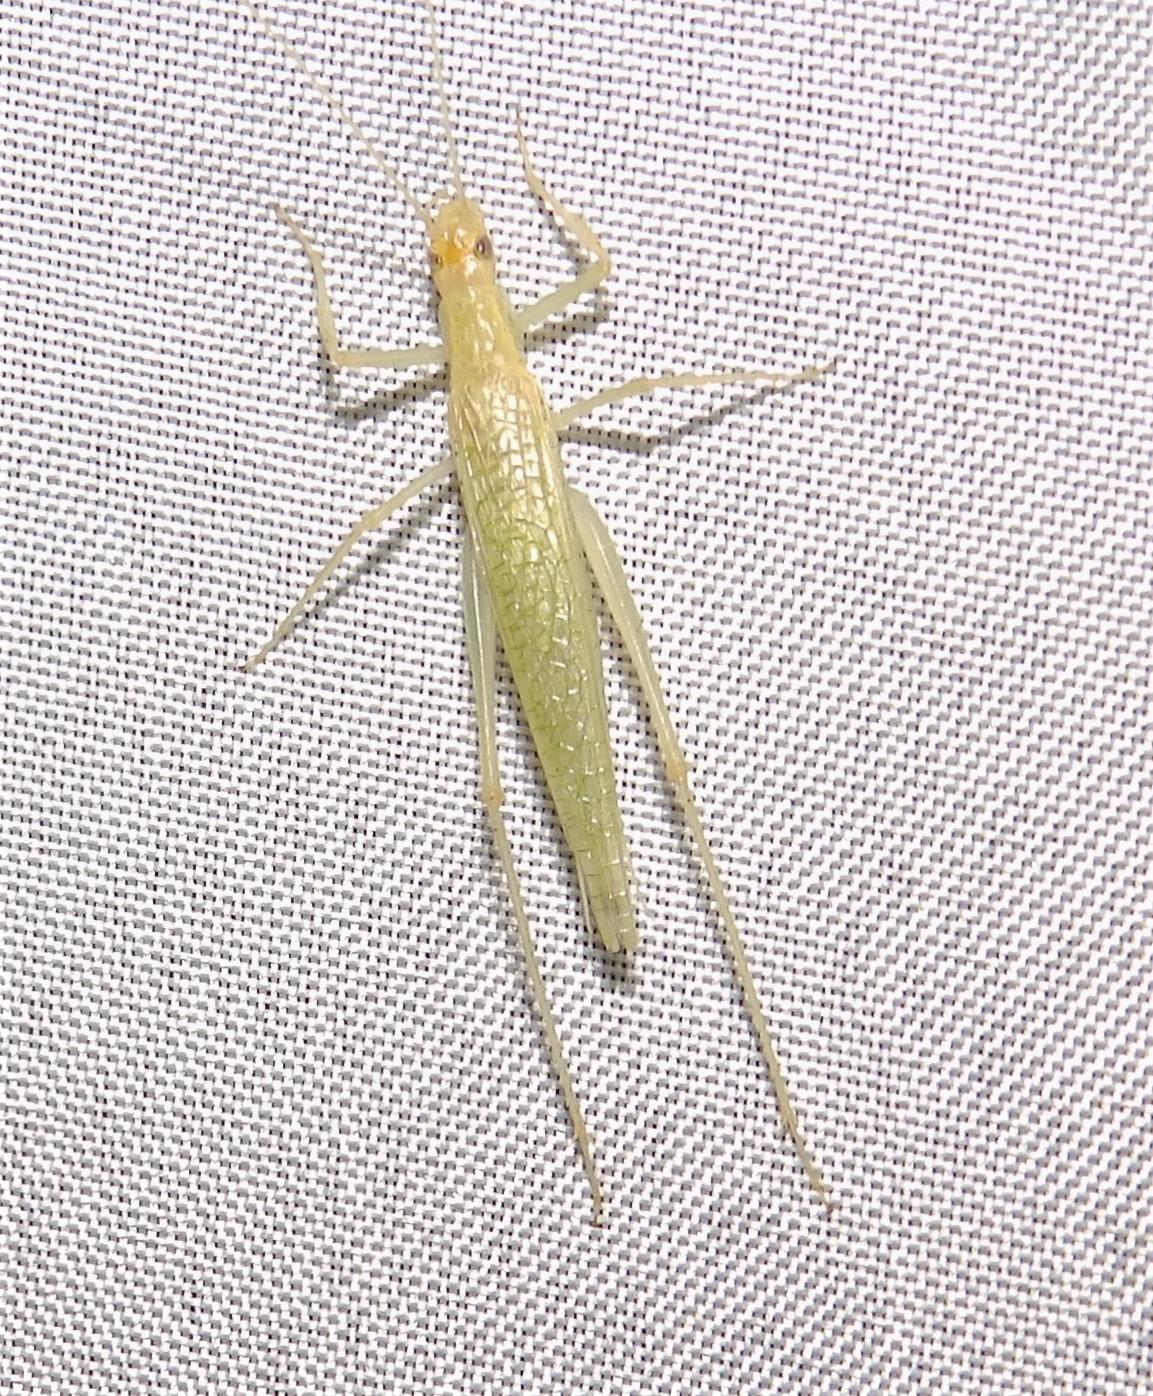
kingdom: Animalia
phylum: Arthropoda
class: Insecta
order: Orthoptera
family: Gryllidae
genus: Oecanthus
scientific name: Oecanthus exclamationis
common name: Davis's tree cricket
